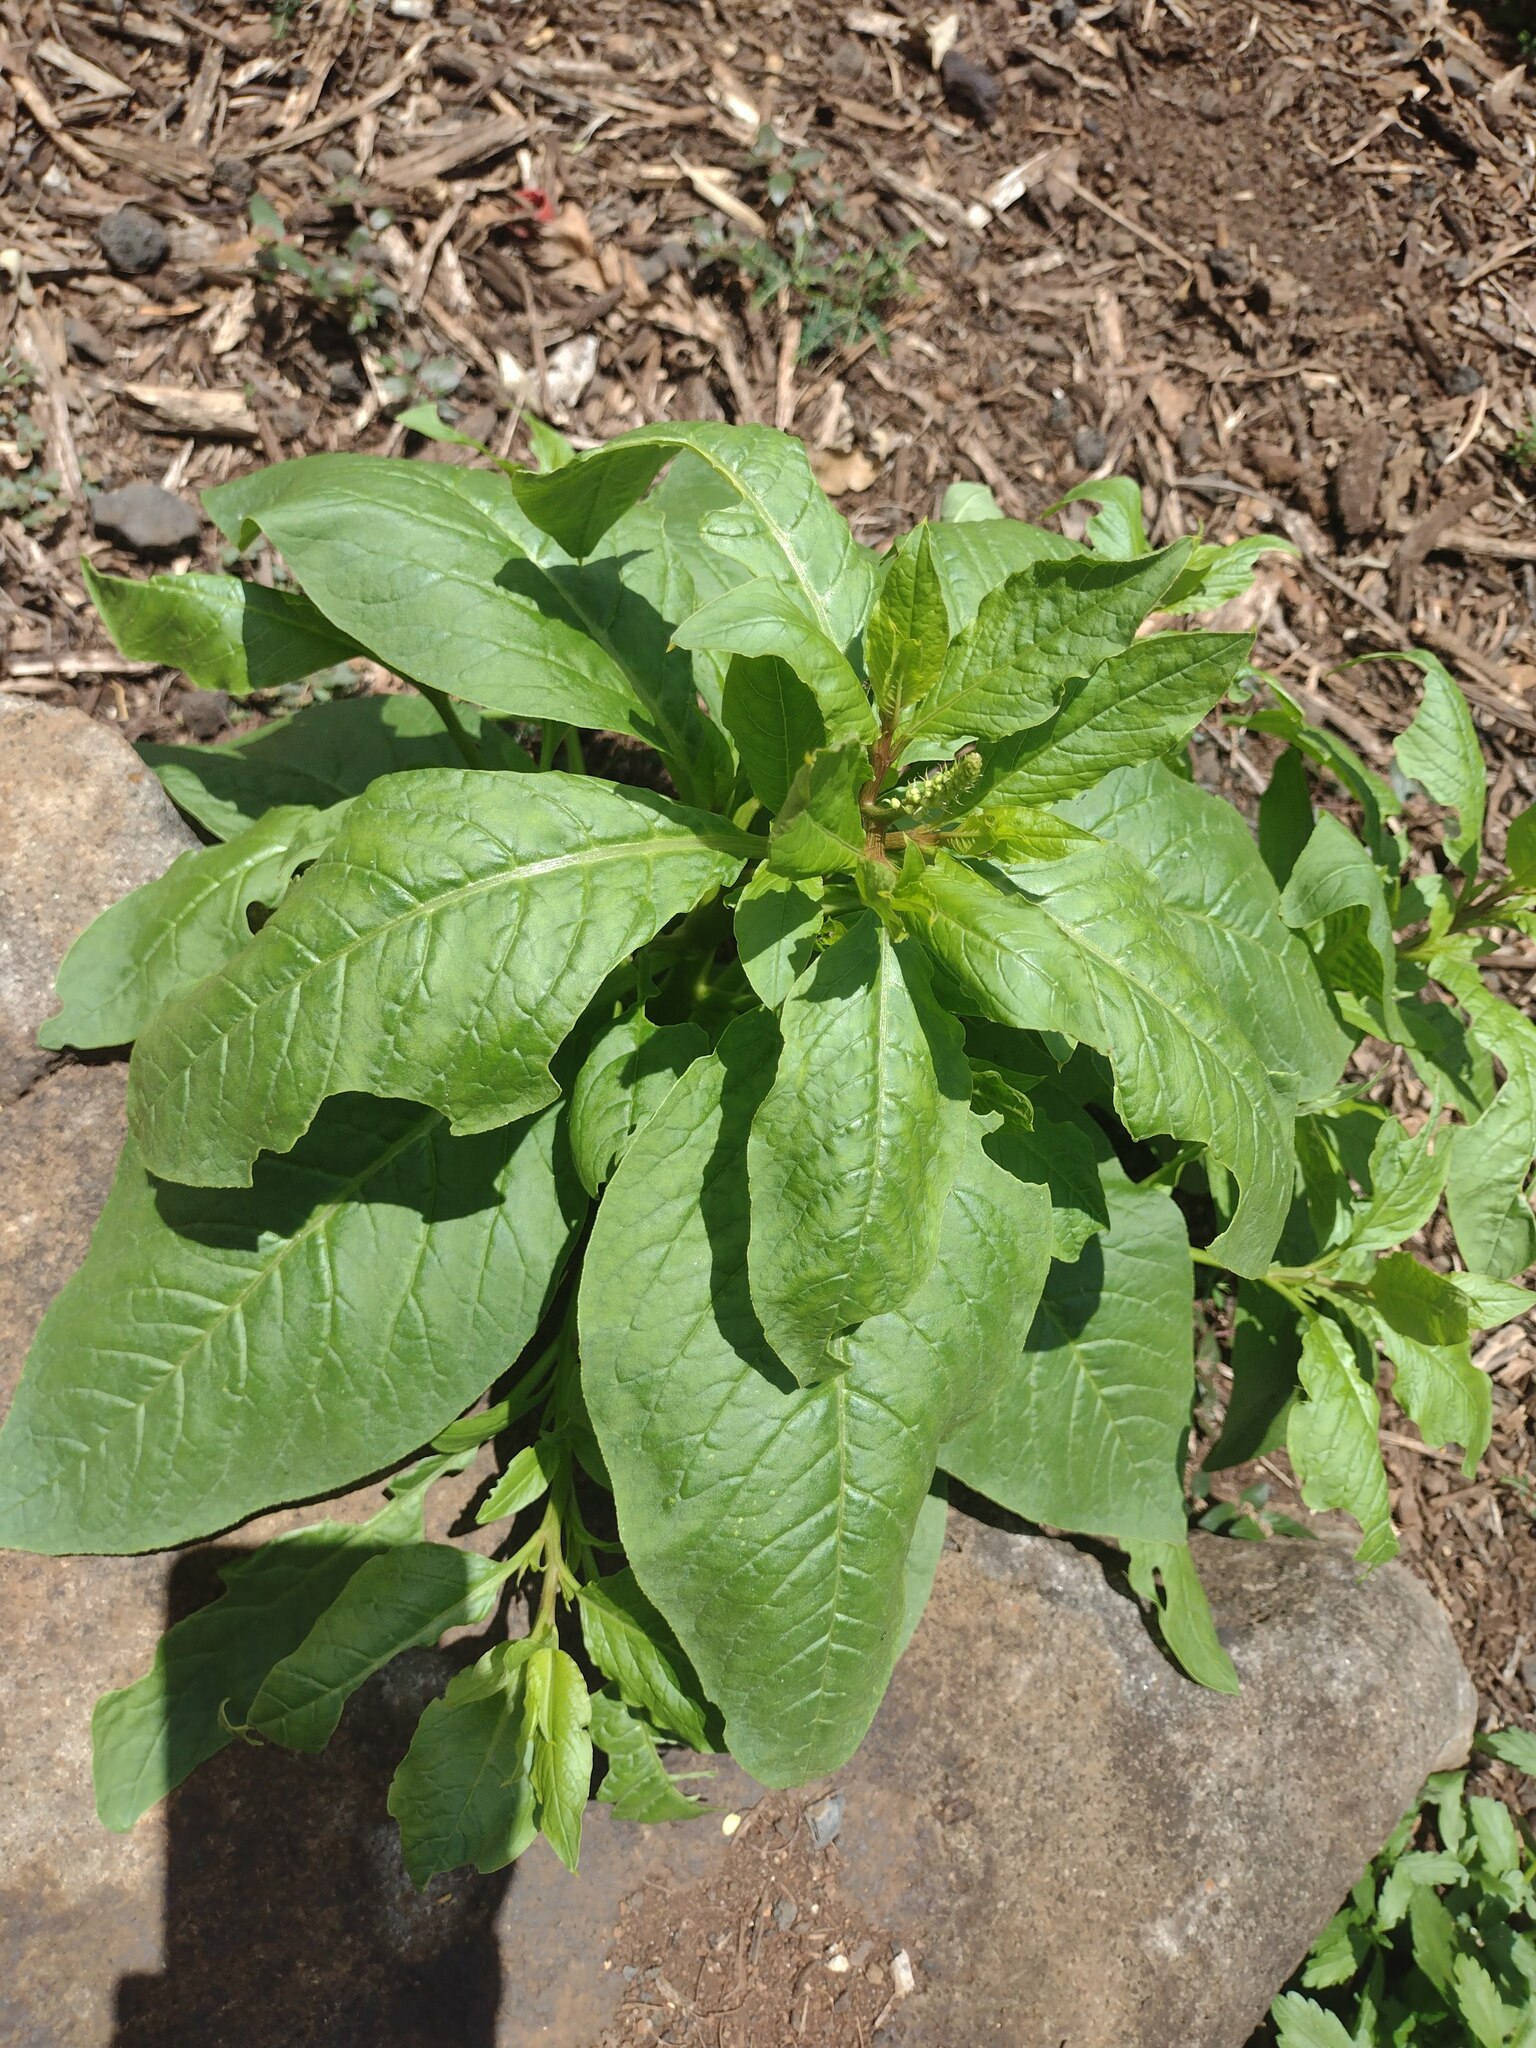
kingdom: Plantae
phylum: Tracheophyta
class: Magnoliopsida
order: Caryophyllales
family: Phytolaccaceae
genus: Phytolacca
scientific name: Phytolacca icosandra
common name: Button pokeweed
